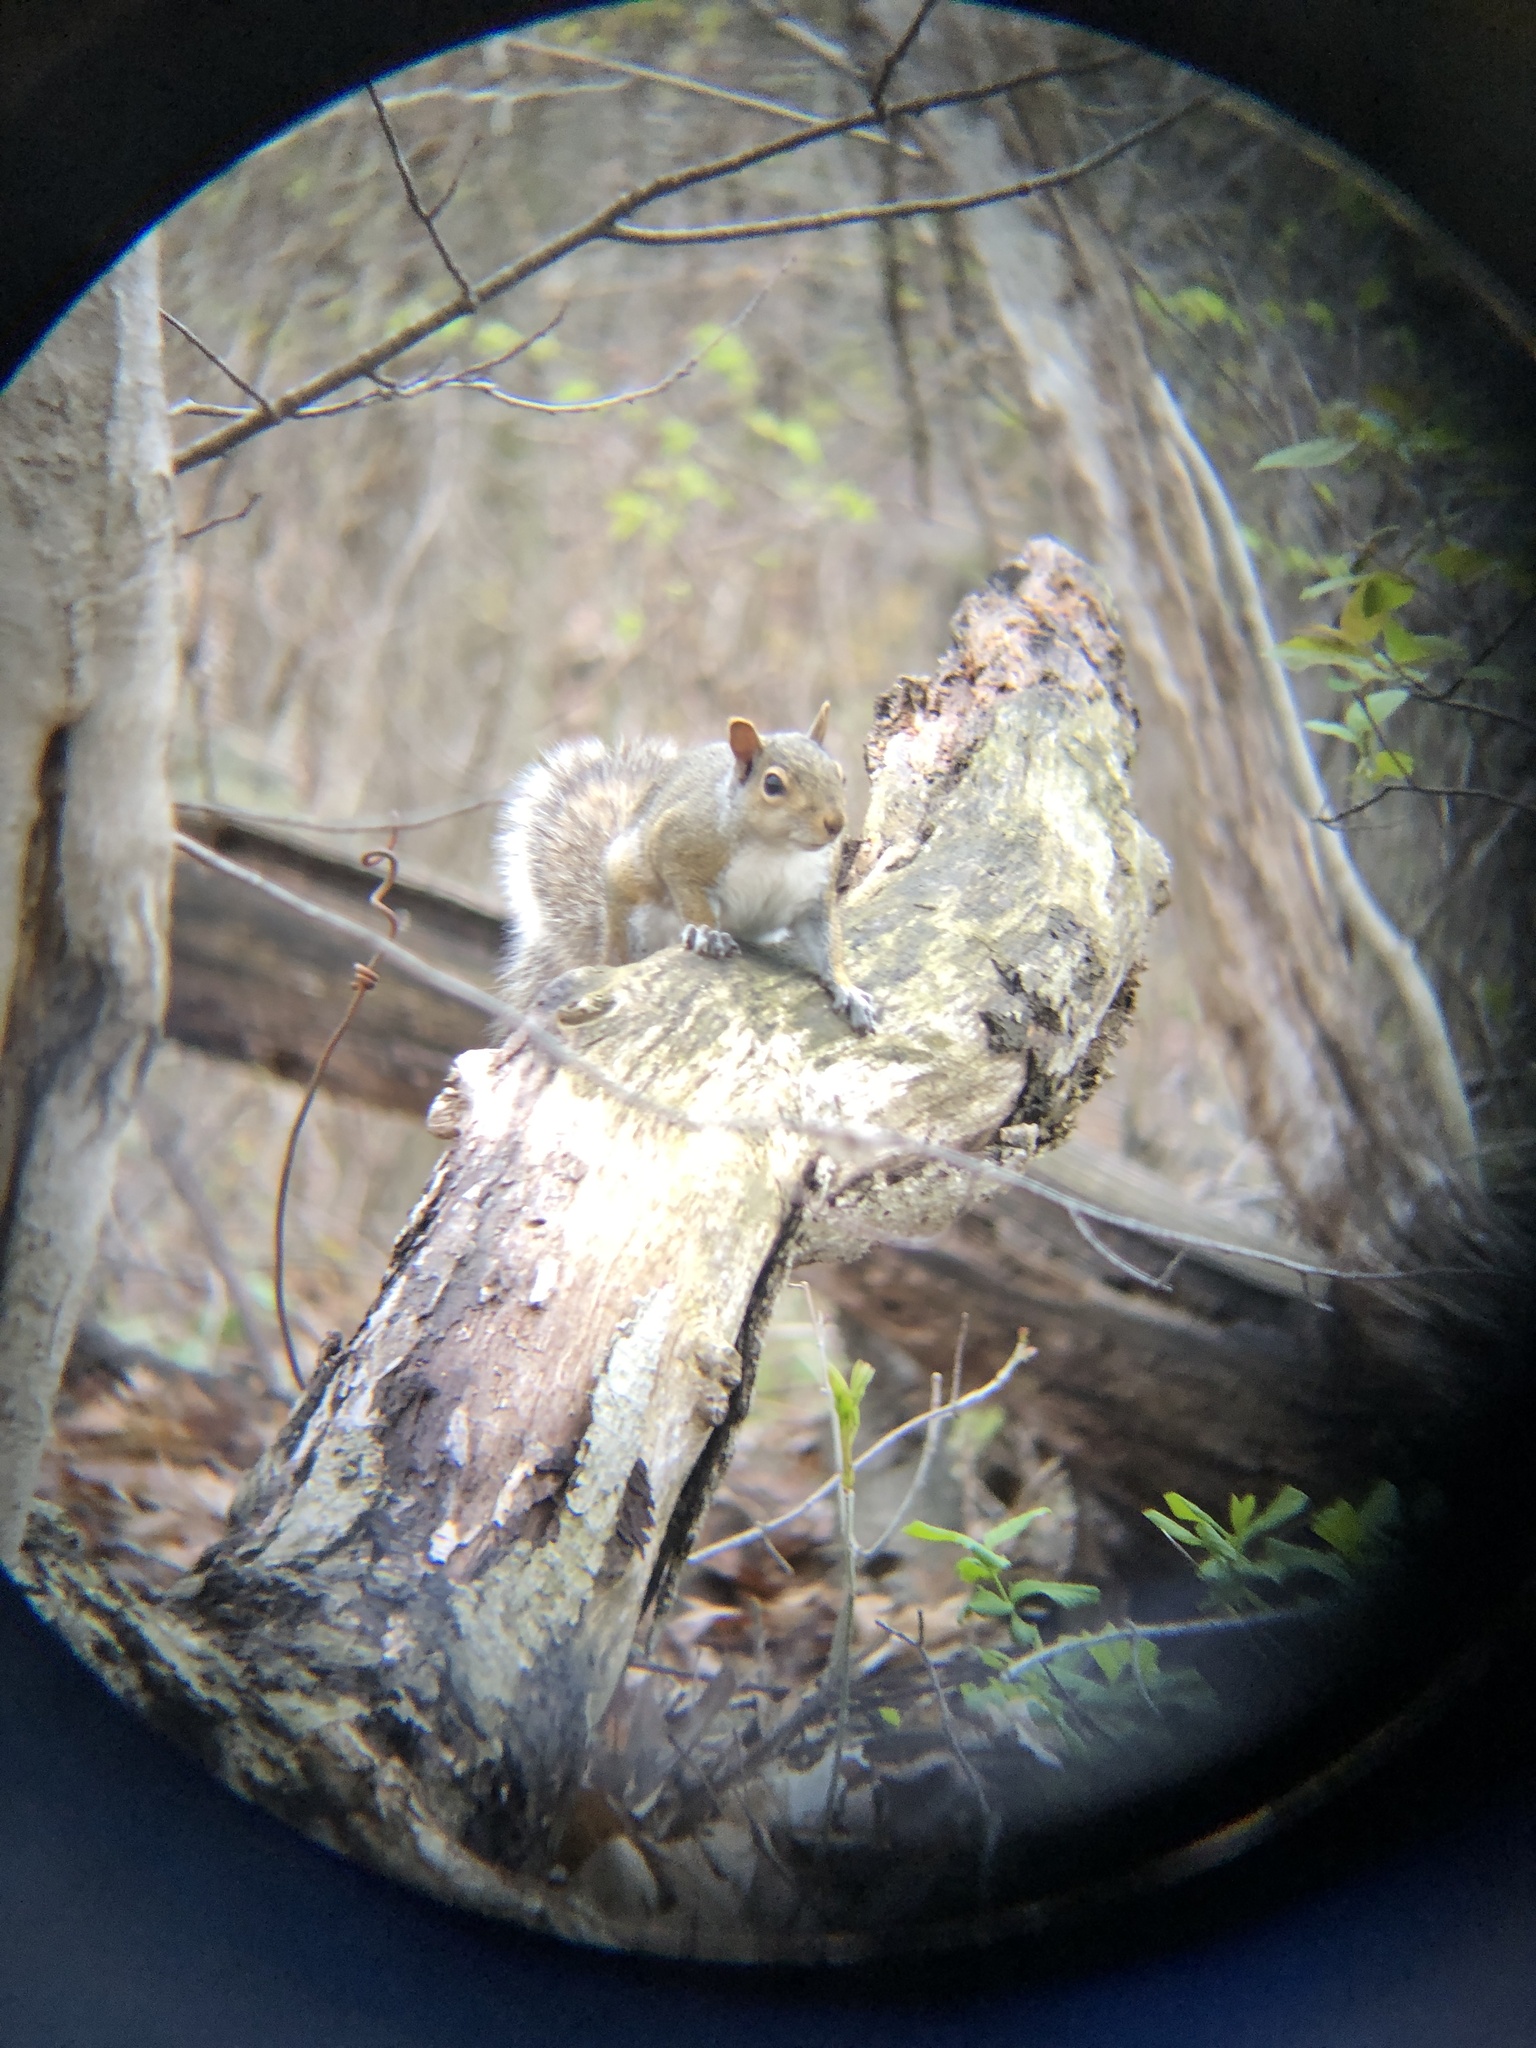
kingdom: Animalia
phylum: Chordata
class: Mammalia
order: Rodentia
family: Sciuridae
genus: Sciurus
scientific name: Sciurus carolinensis
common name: Eastern gray squirrel
